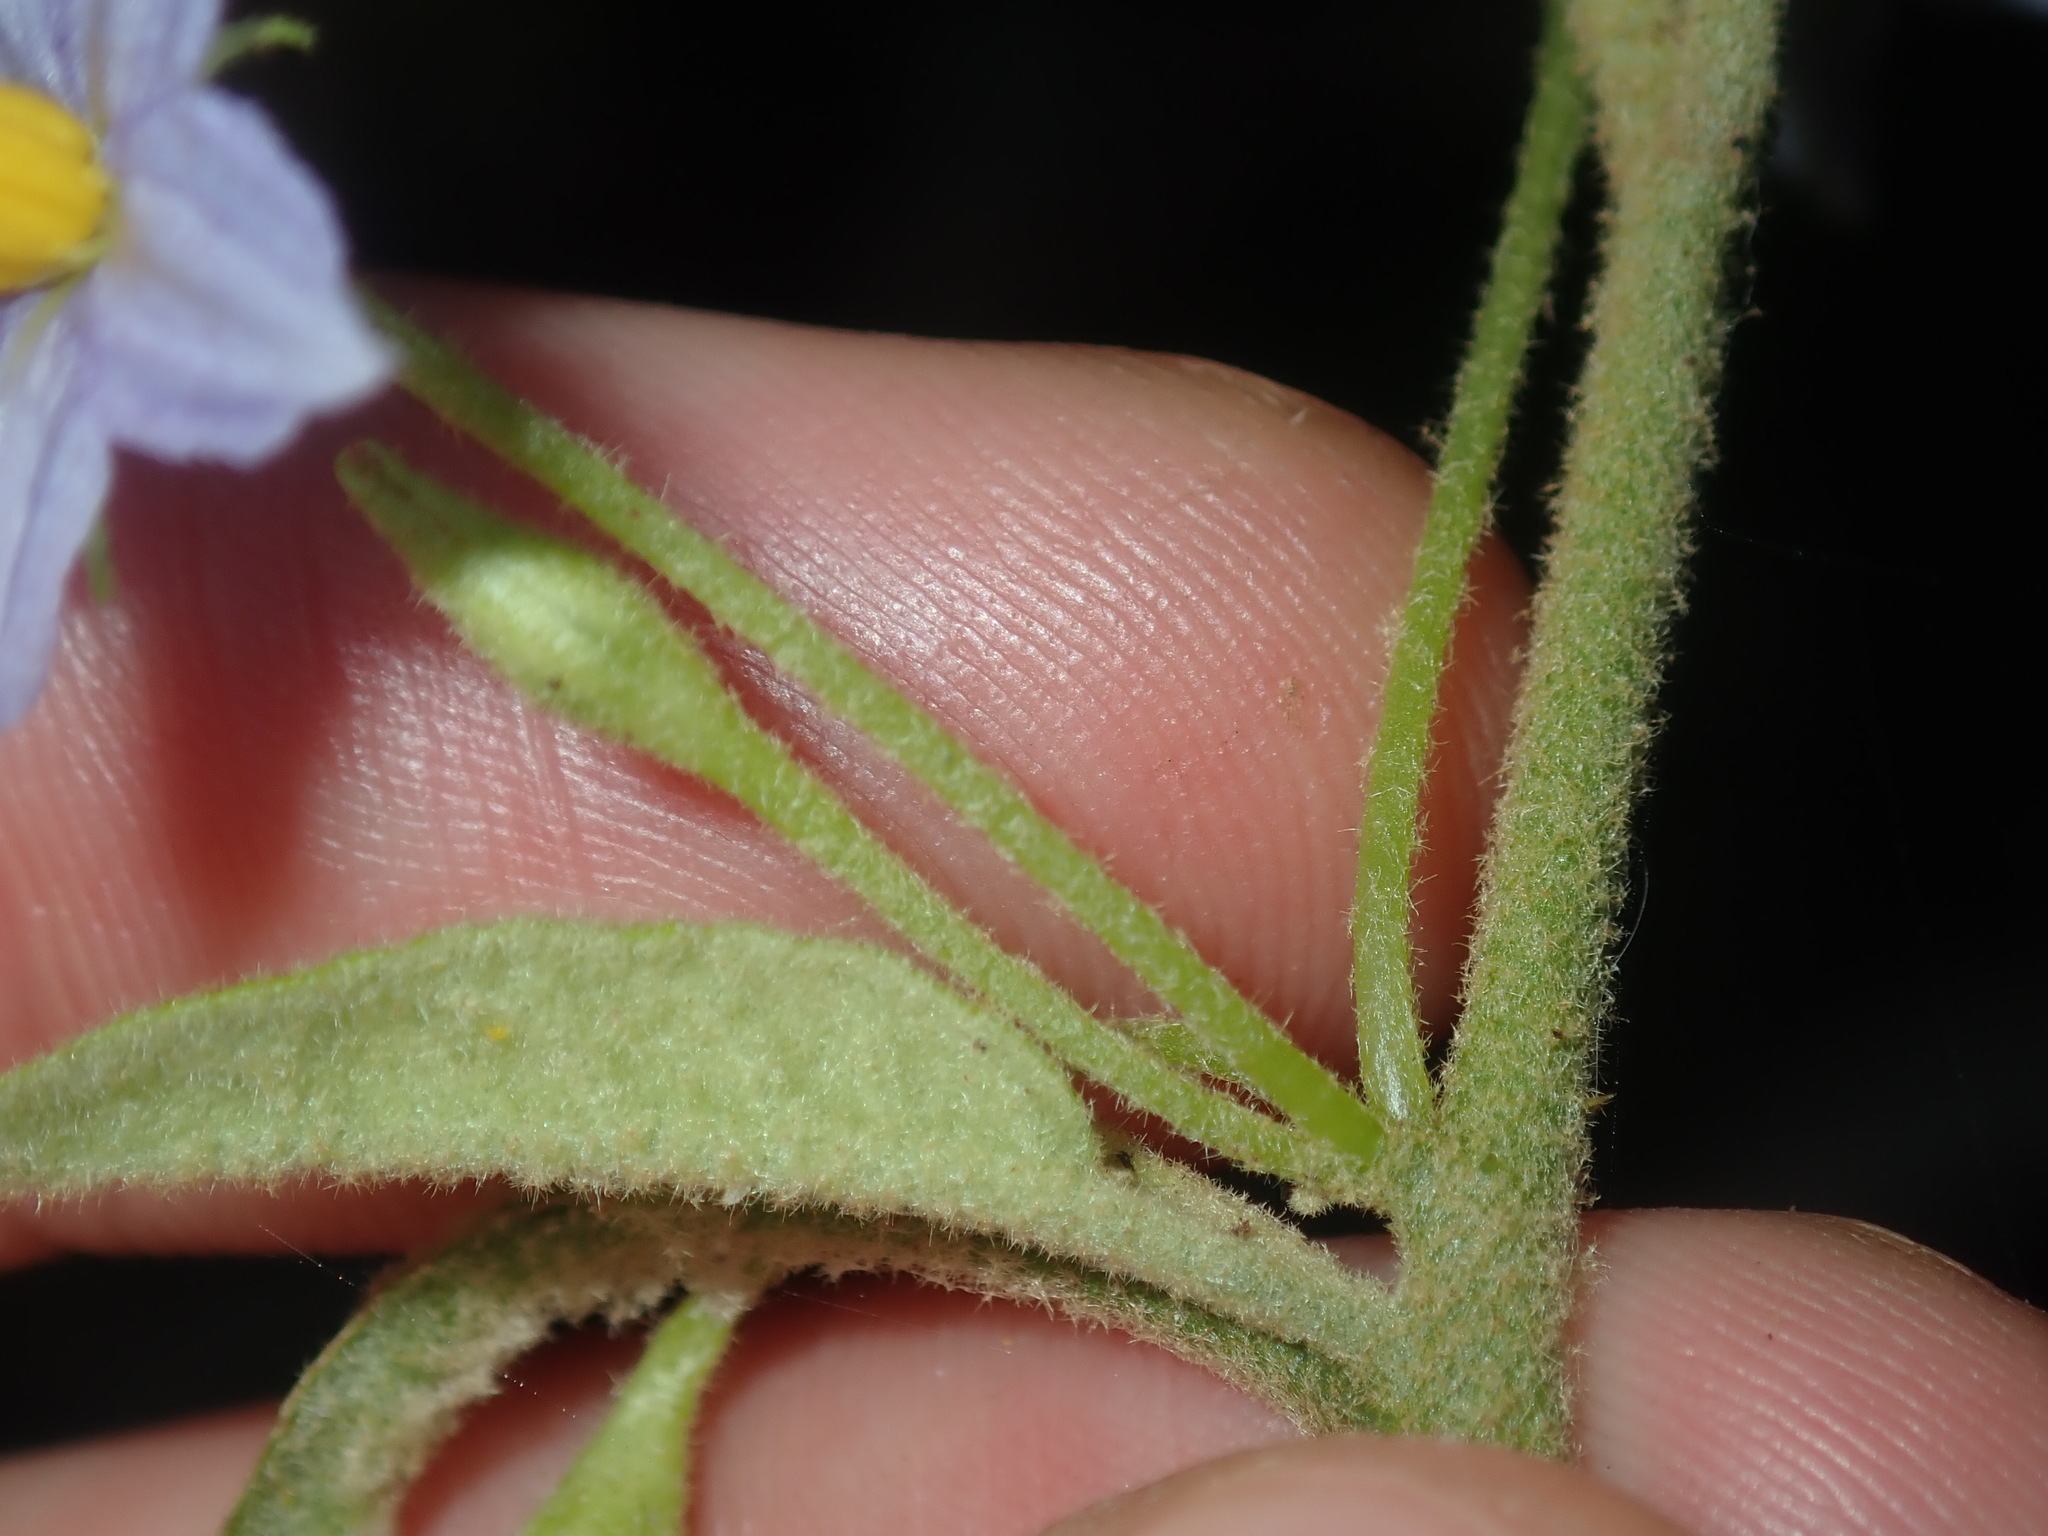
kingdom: Plantae
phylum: Tracheophyta
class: Magnoliopsida
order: Solanales
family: Solanaceae
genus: Solanum
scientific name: Solanum stelligerum
